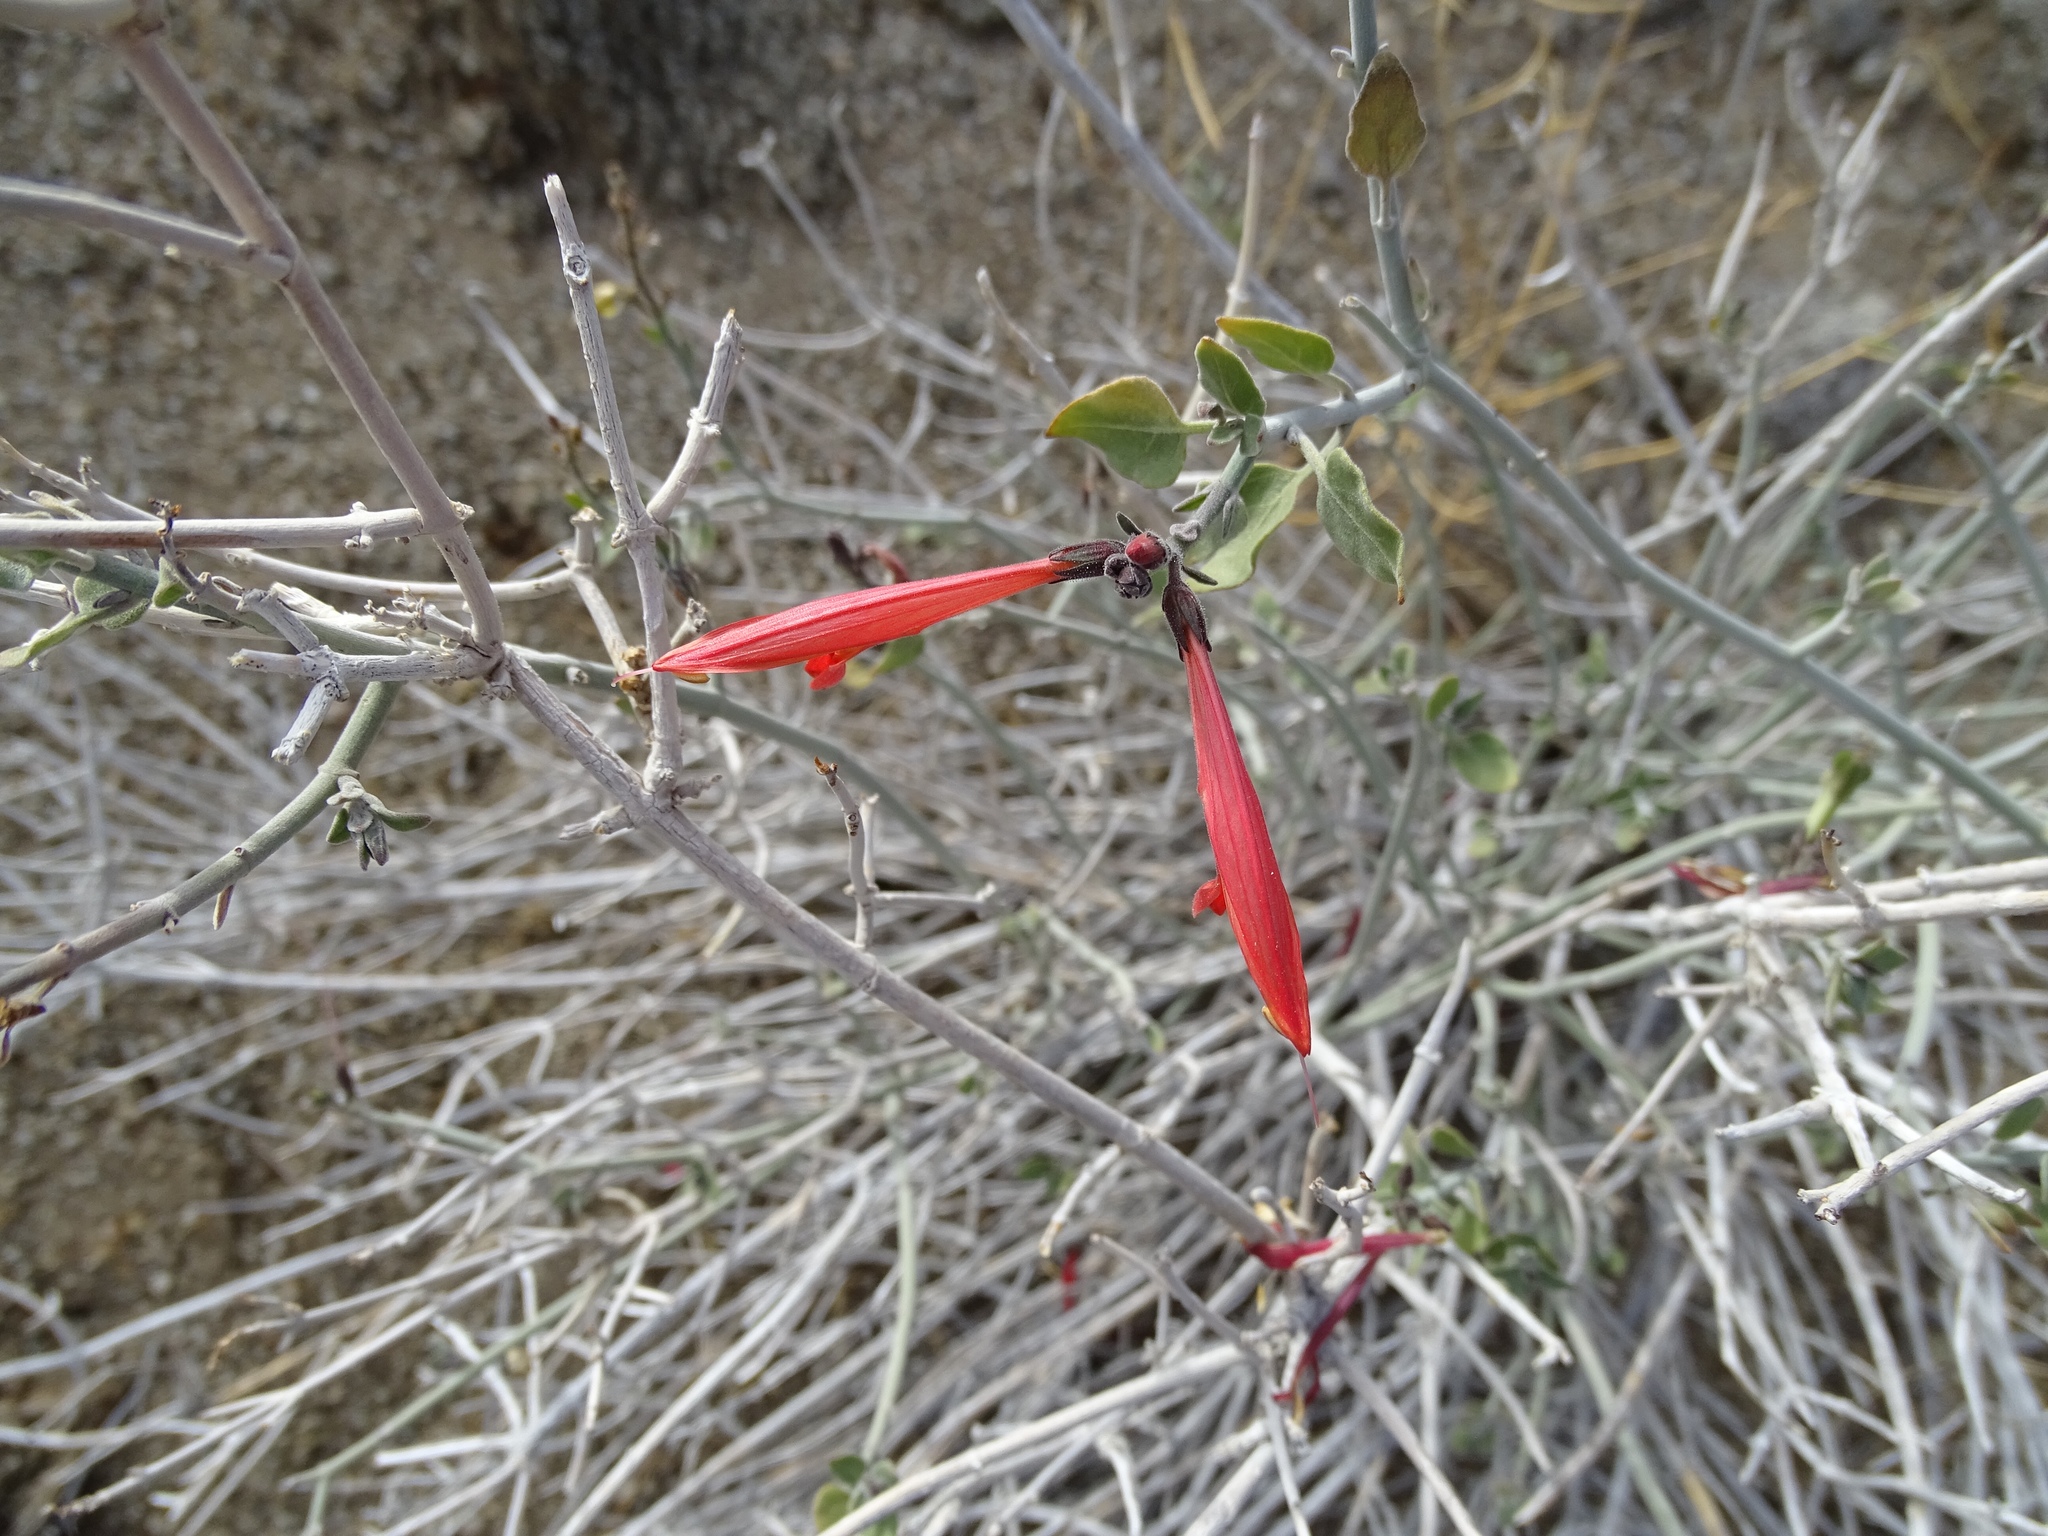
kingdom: Plantae
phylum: Tracheophyta
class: Magnoliopsida
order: Lamiales
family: Acanthaceae
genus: Justicia
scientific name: Justicia californica
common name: Chuparosa-honeysuckle
